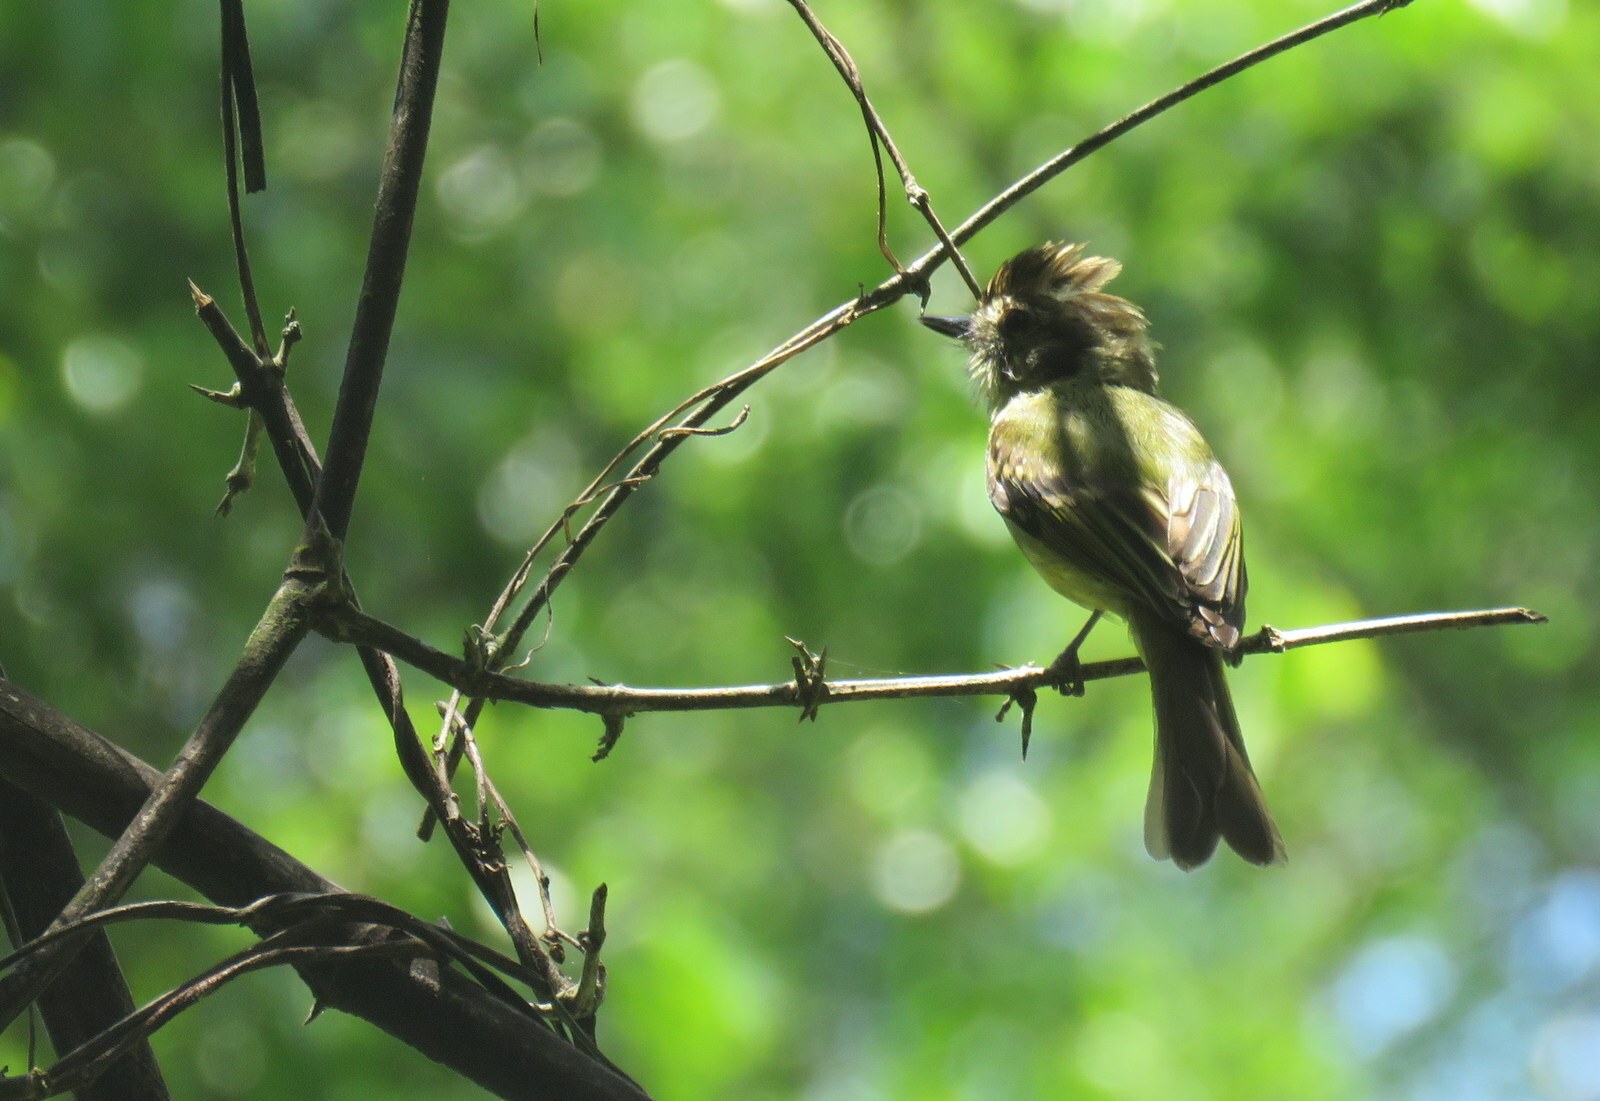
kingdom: Animalia
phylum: Chordata
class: Aves
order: Passeriformes
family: Tyrannidae
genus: Leptopogon
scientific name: Leptopogon amaurocephalus
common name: Sepia-capped flycatcher
